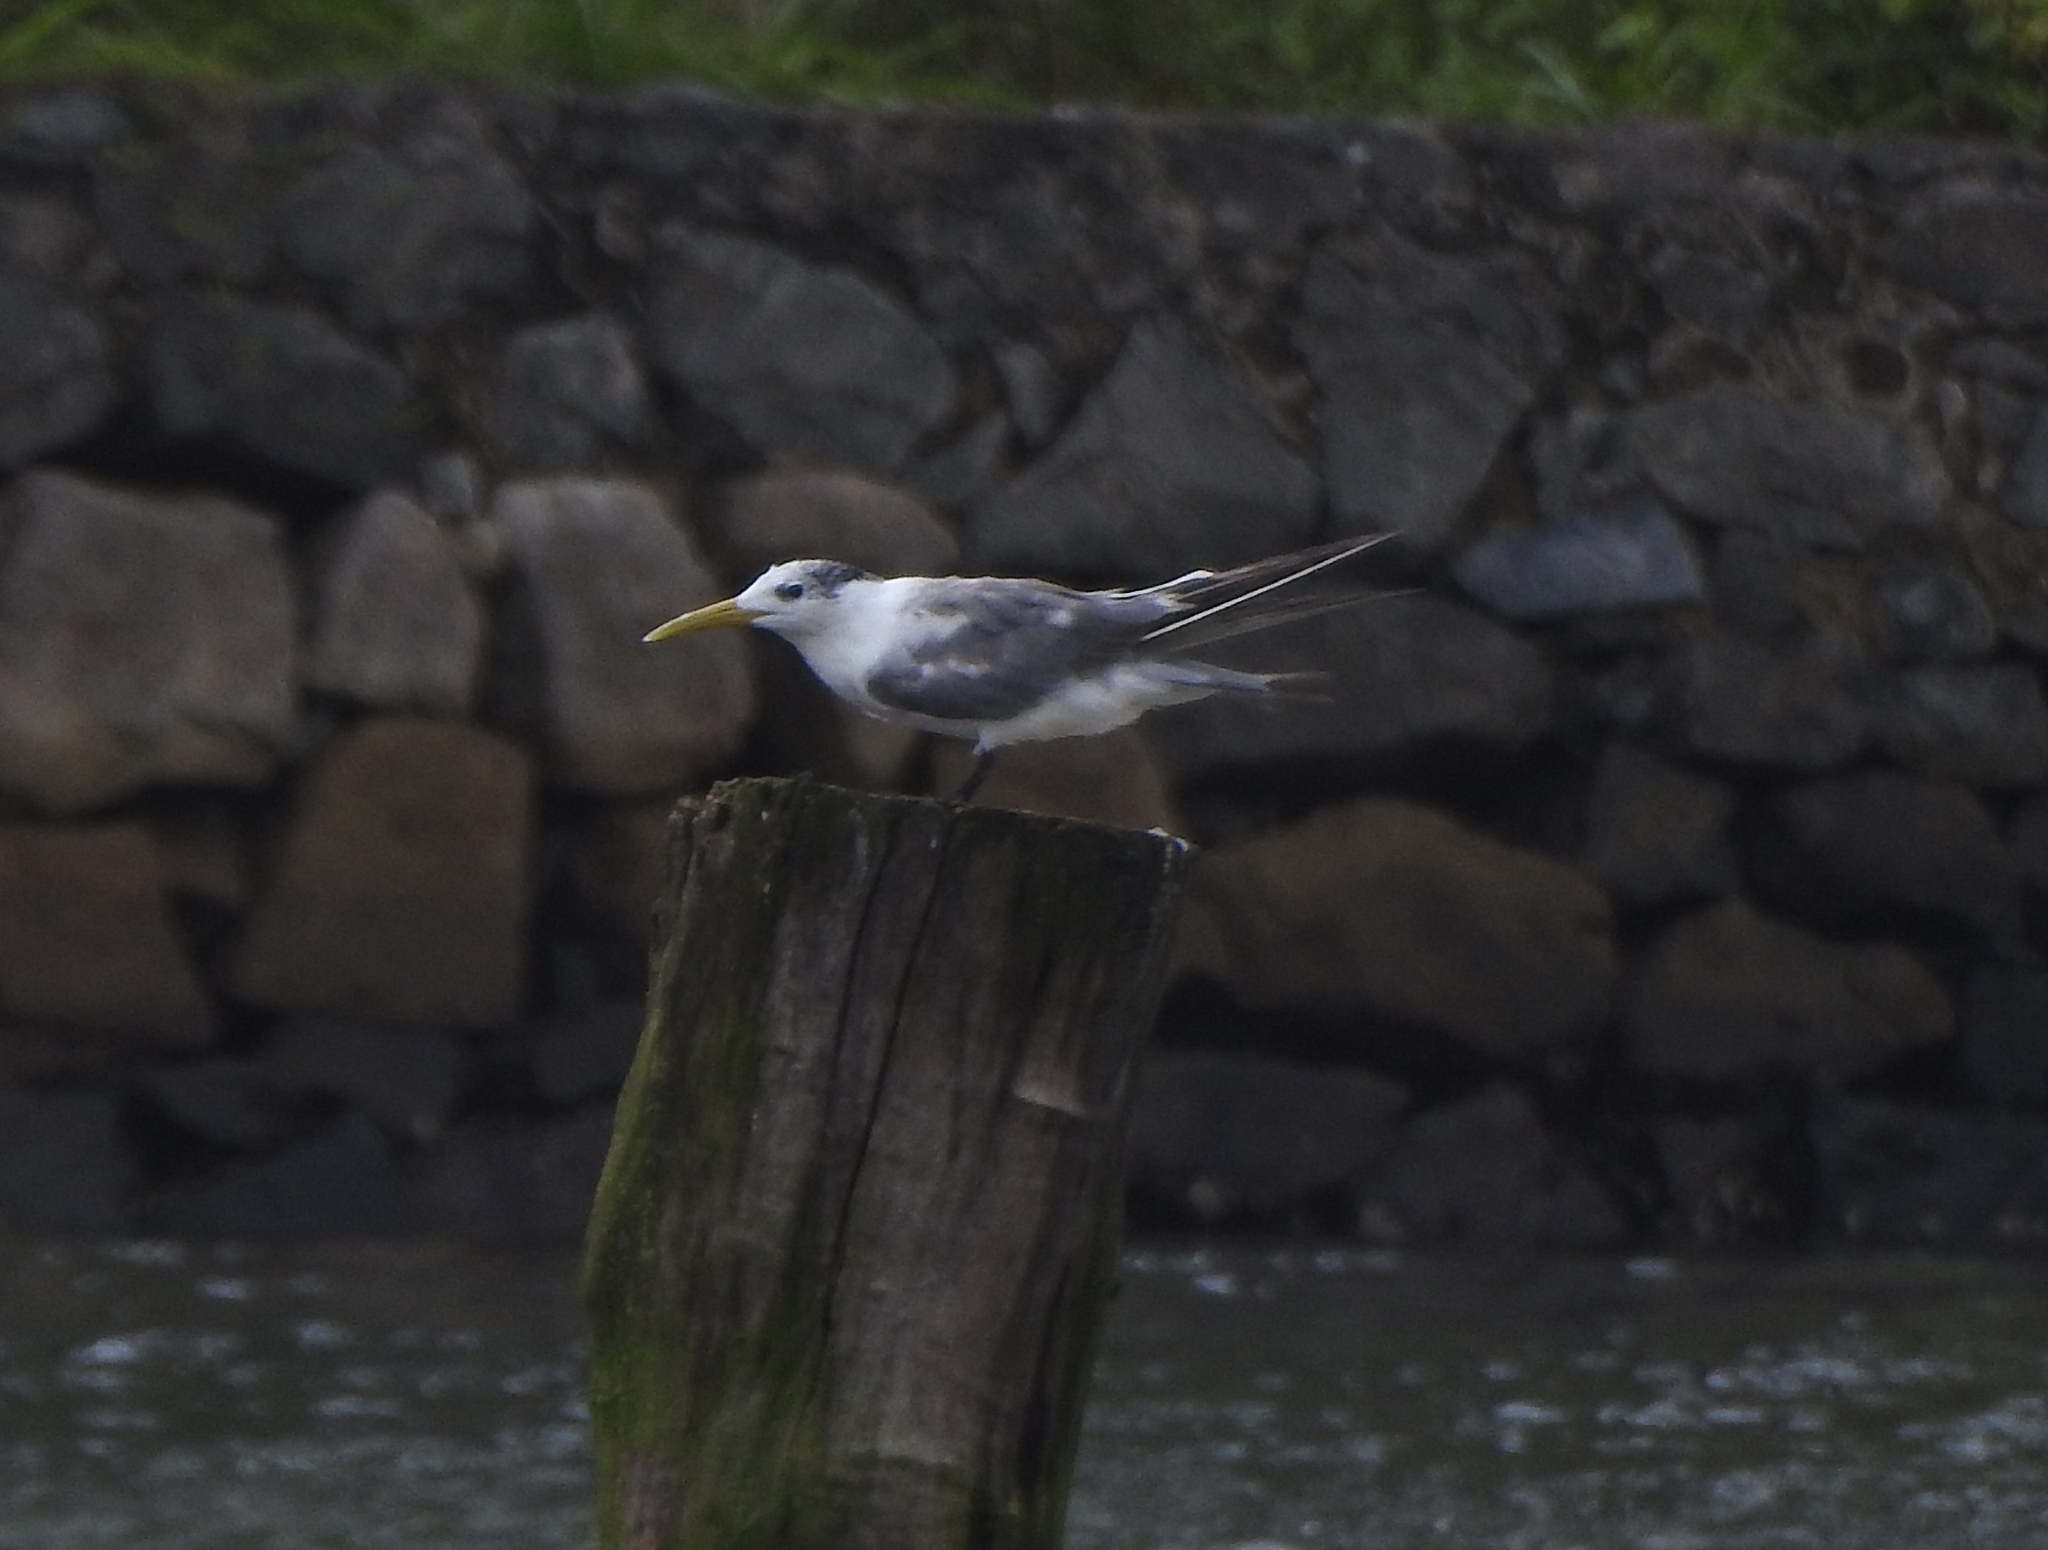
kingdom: Animalia
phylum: Chordata
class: Aves
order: Charadriiformes
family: Laridae
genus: Thalasseus
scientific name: Thalasseus bergii
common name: Greater crested tern
